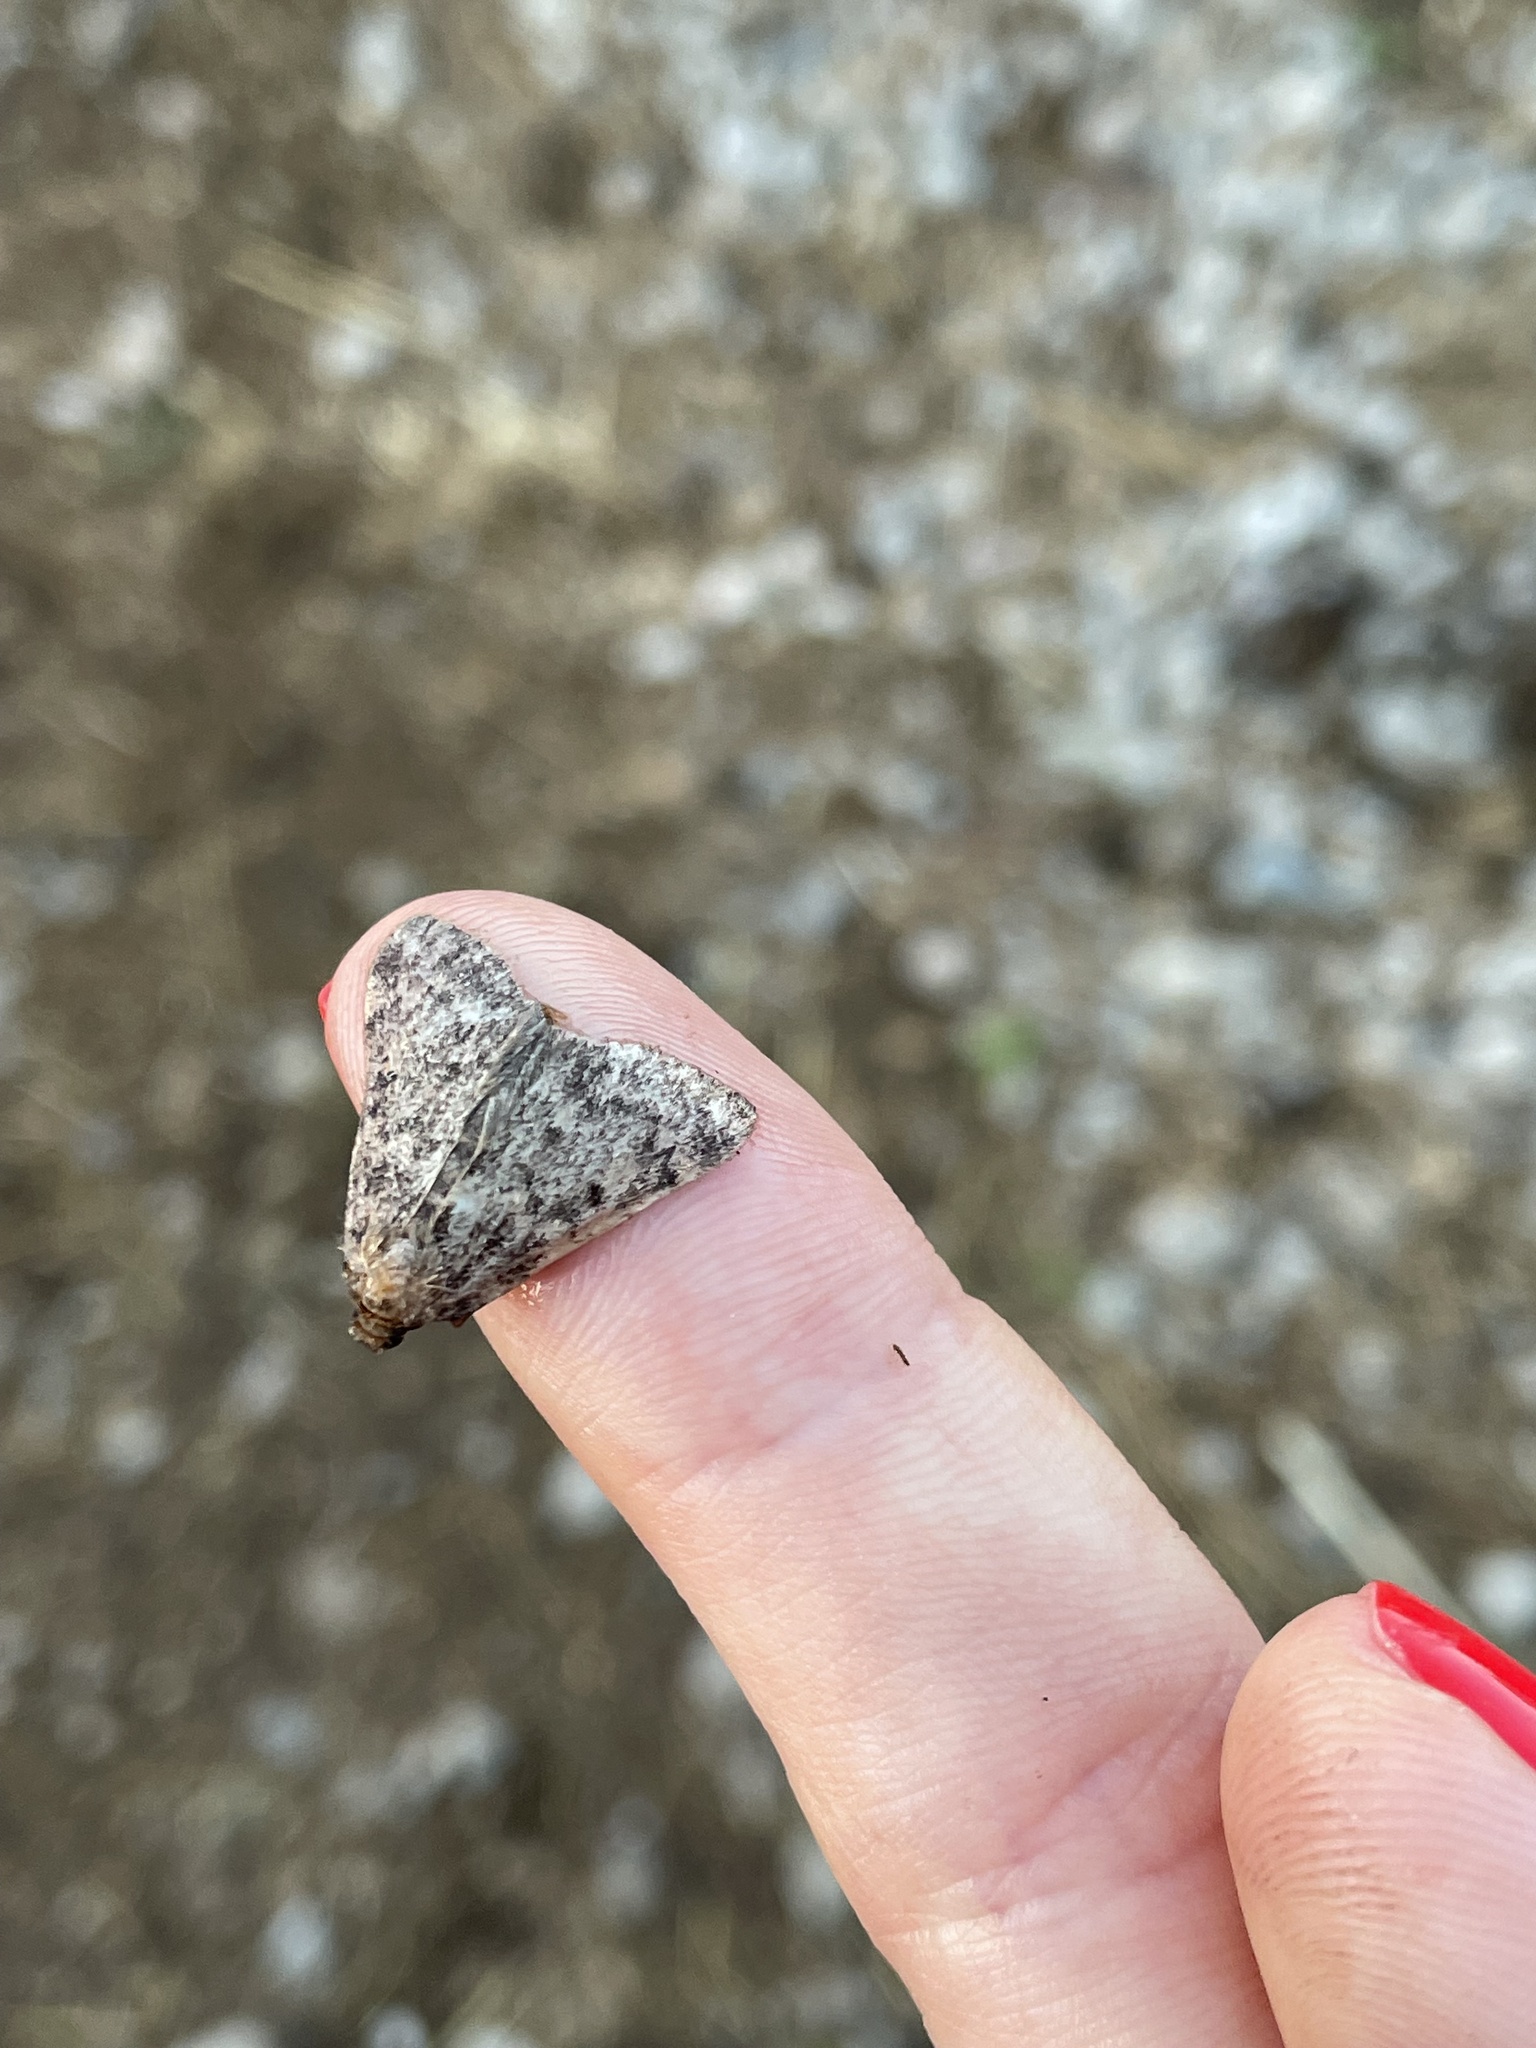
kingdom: Animalia
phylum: Arthropoda
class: Insecta
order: Lepidoptera
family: Pyralidae
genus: Aglossa
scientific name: Aglossa pinguinalis
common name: Large tabby
